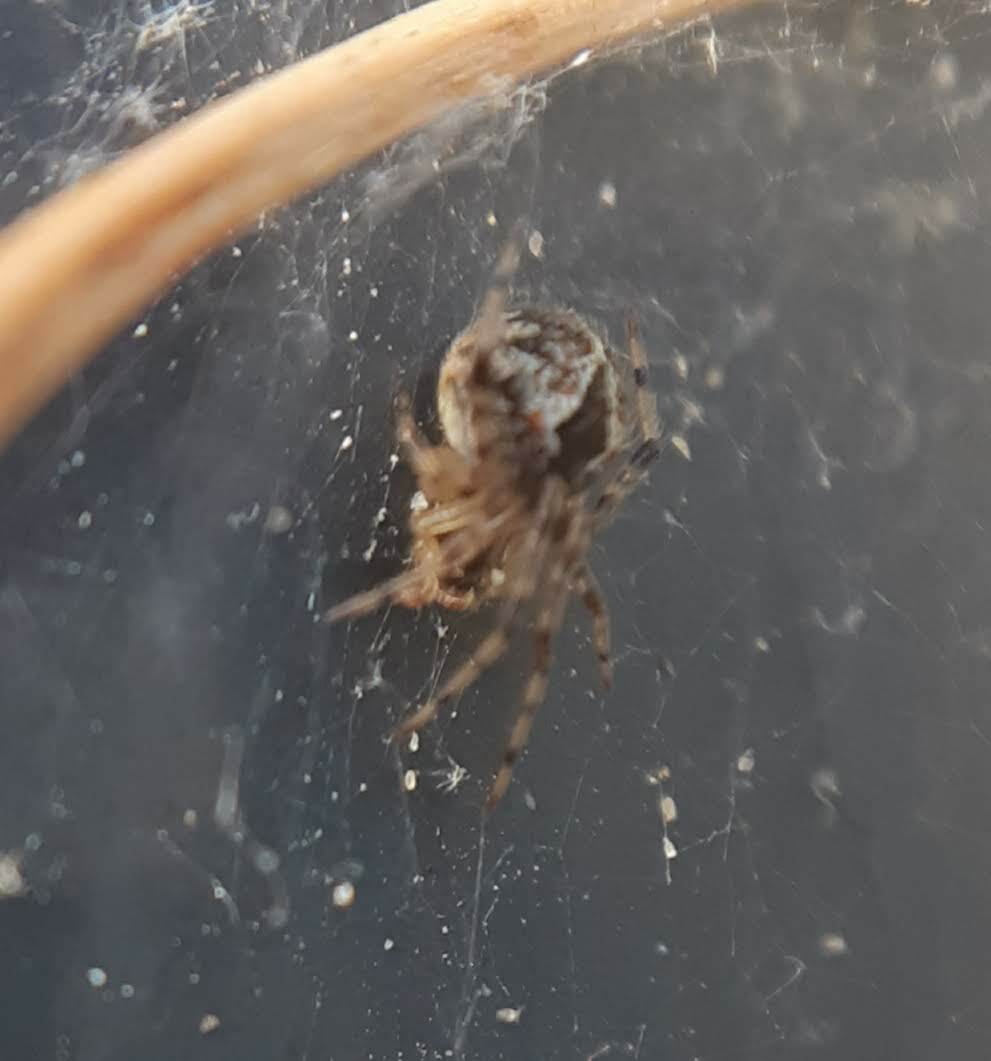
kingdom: Animalia
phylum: Arthropoda
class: Arachnida
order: Araneae
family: Theridiidae
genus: Cryptachaea
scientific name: Cryptachaea veruculata
